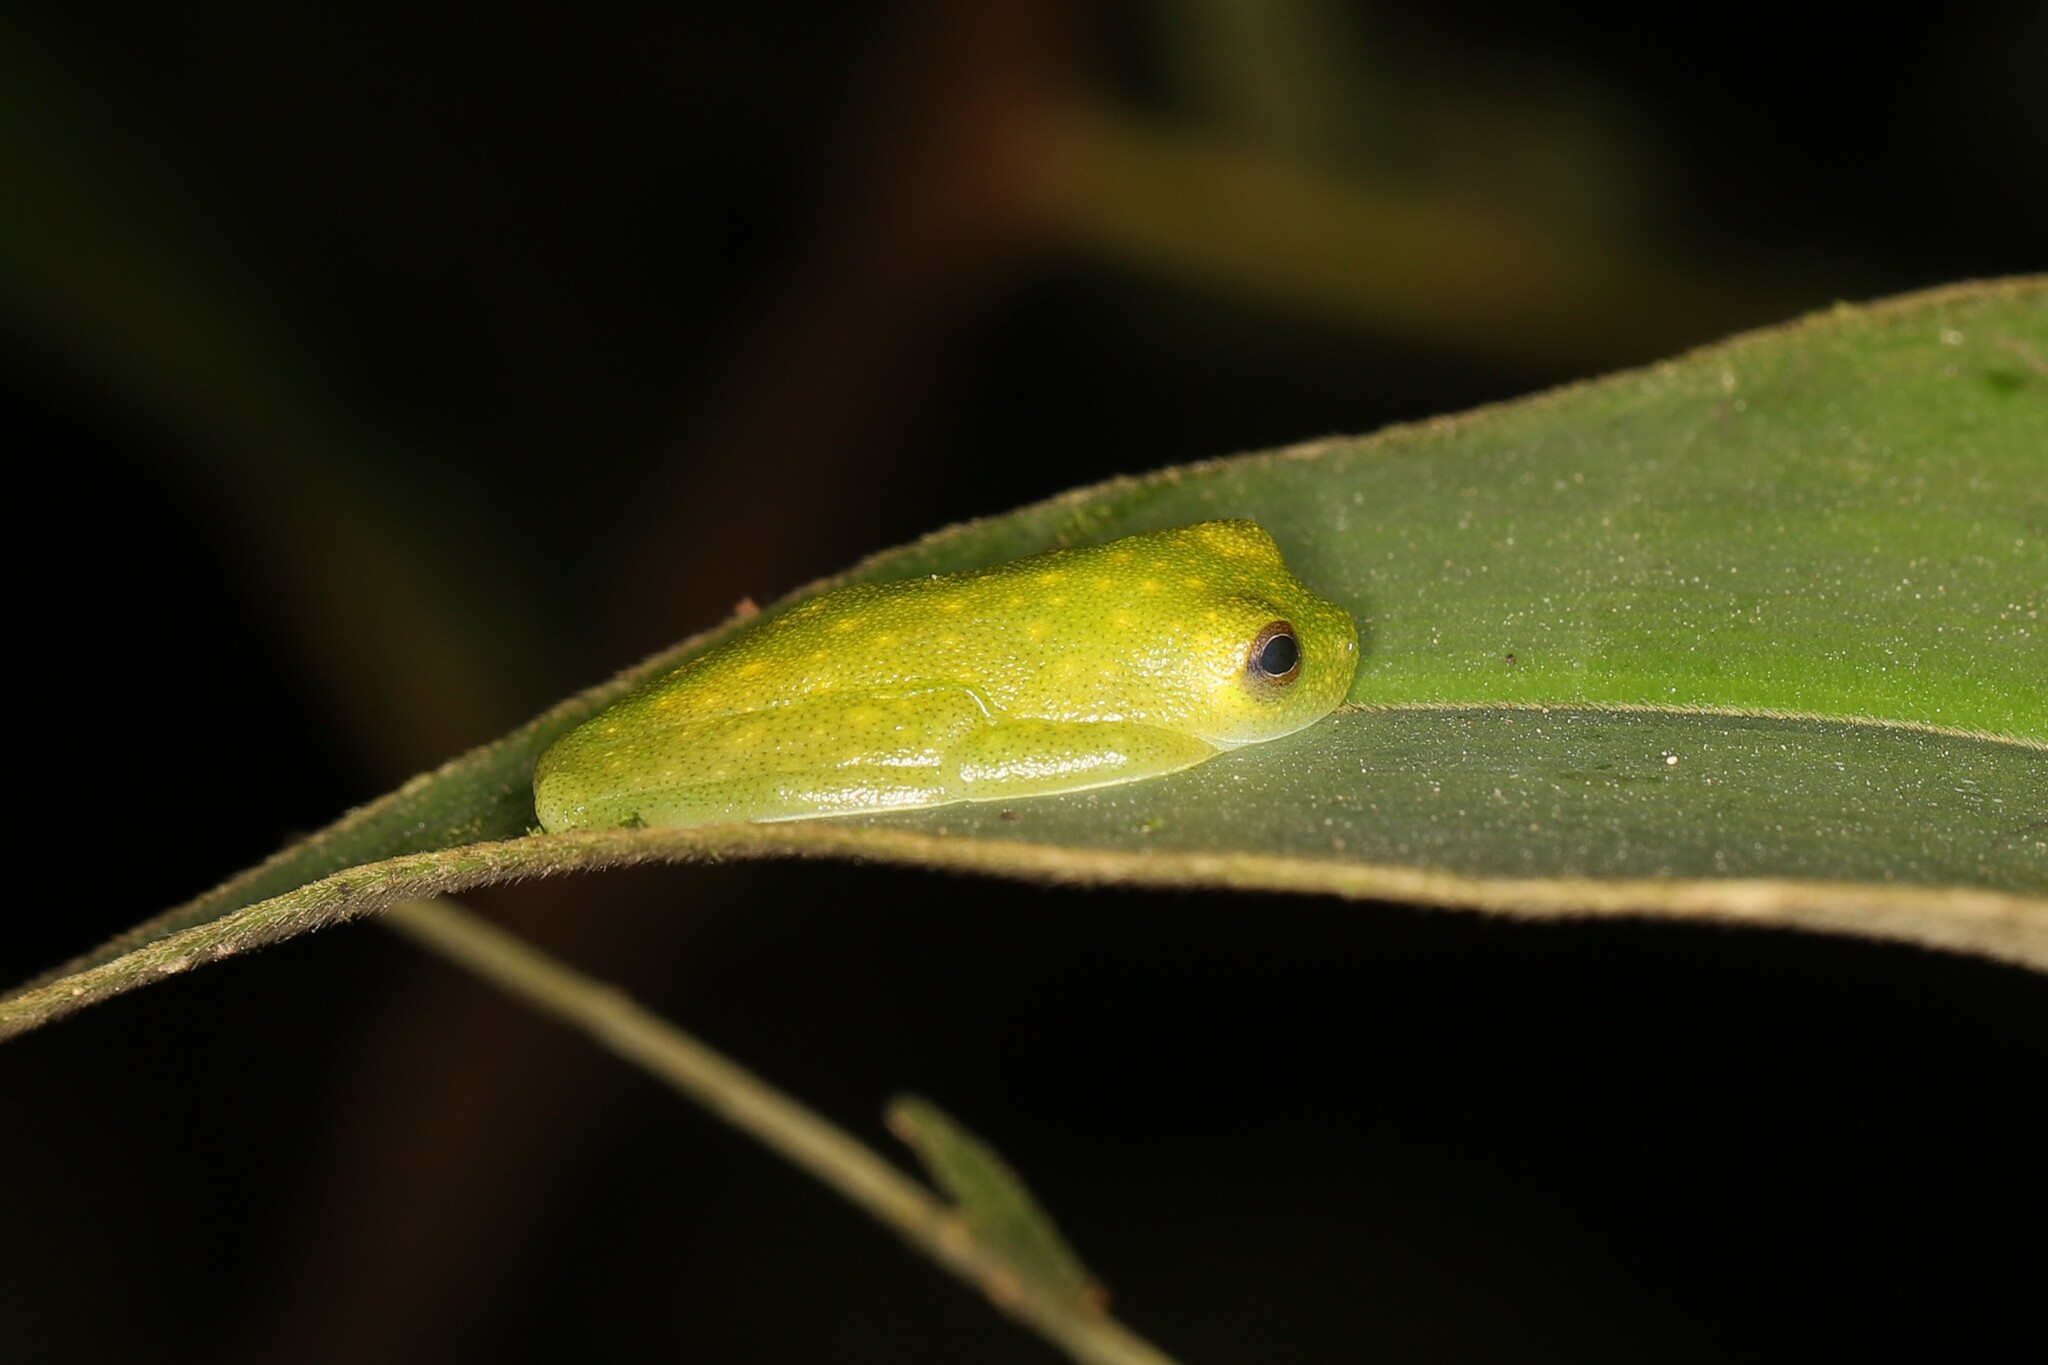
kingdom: Animalia
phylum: Chordata
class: Amphibia
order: Anura
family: Centrolenidae
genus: Hyalinobatrachium
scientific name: Hyalinobatrachium tatayoi
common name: Tatayo’s glass frog
